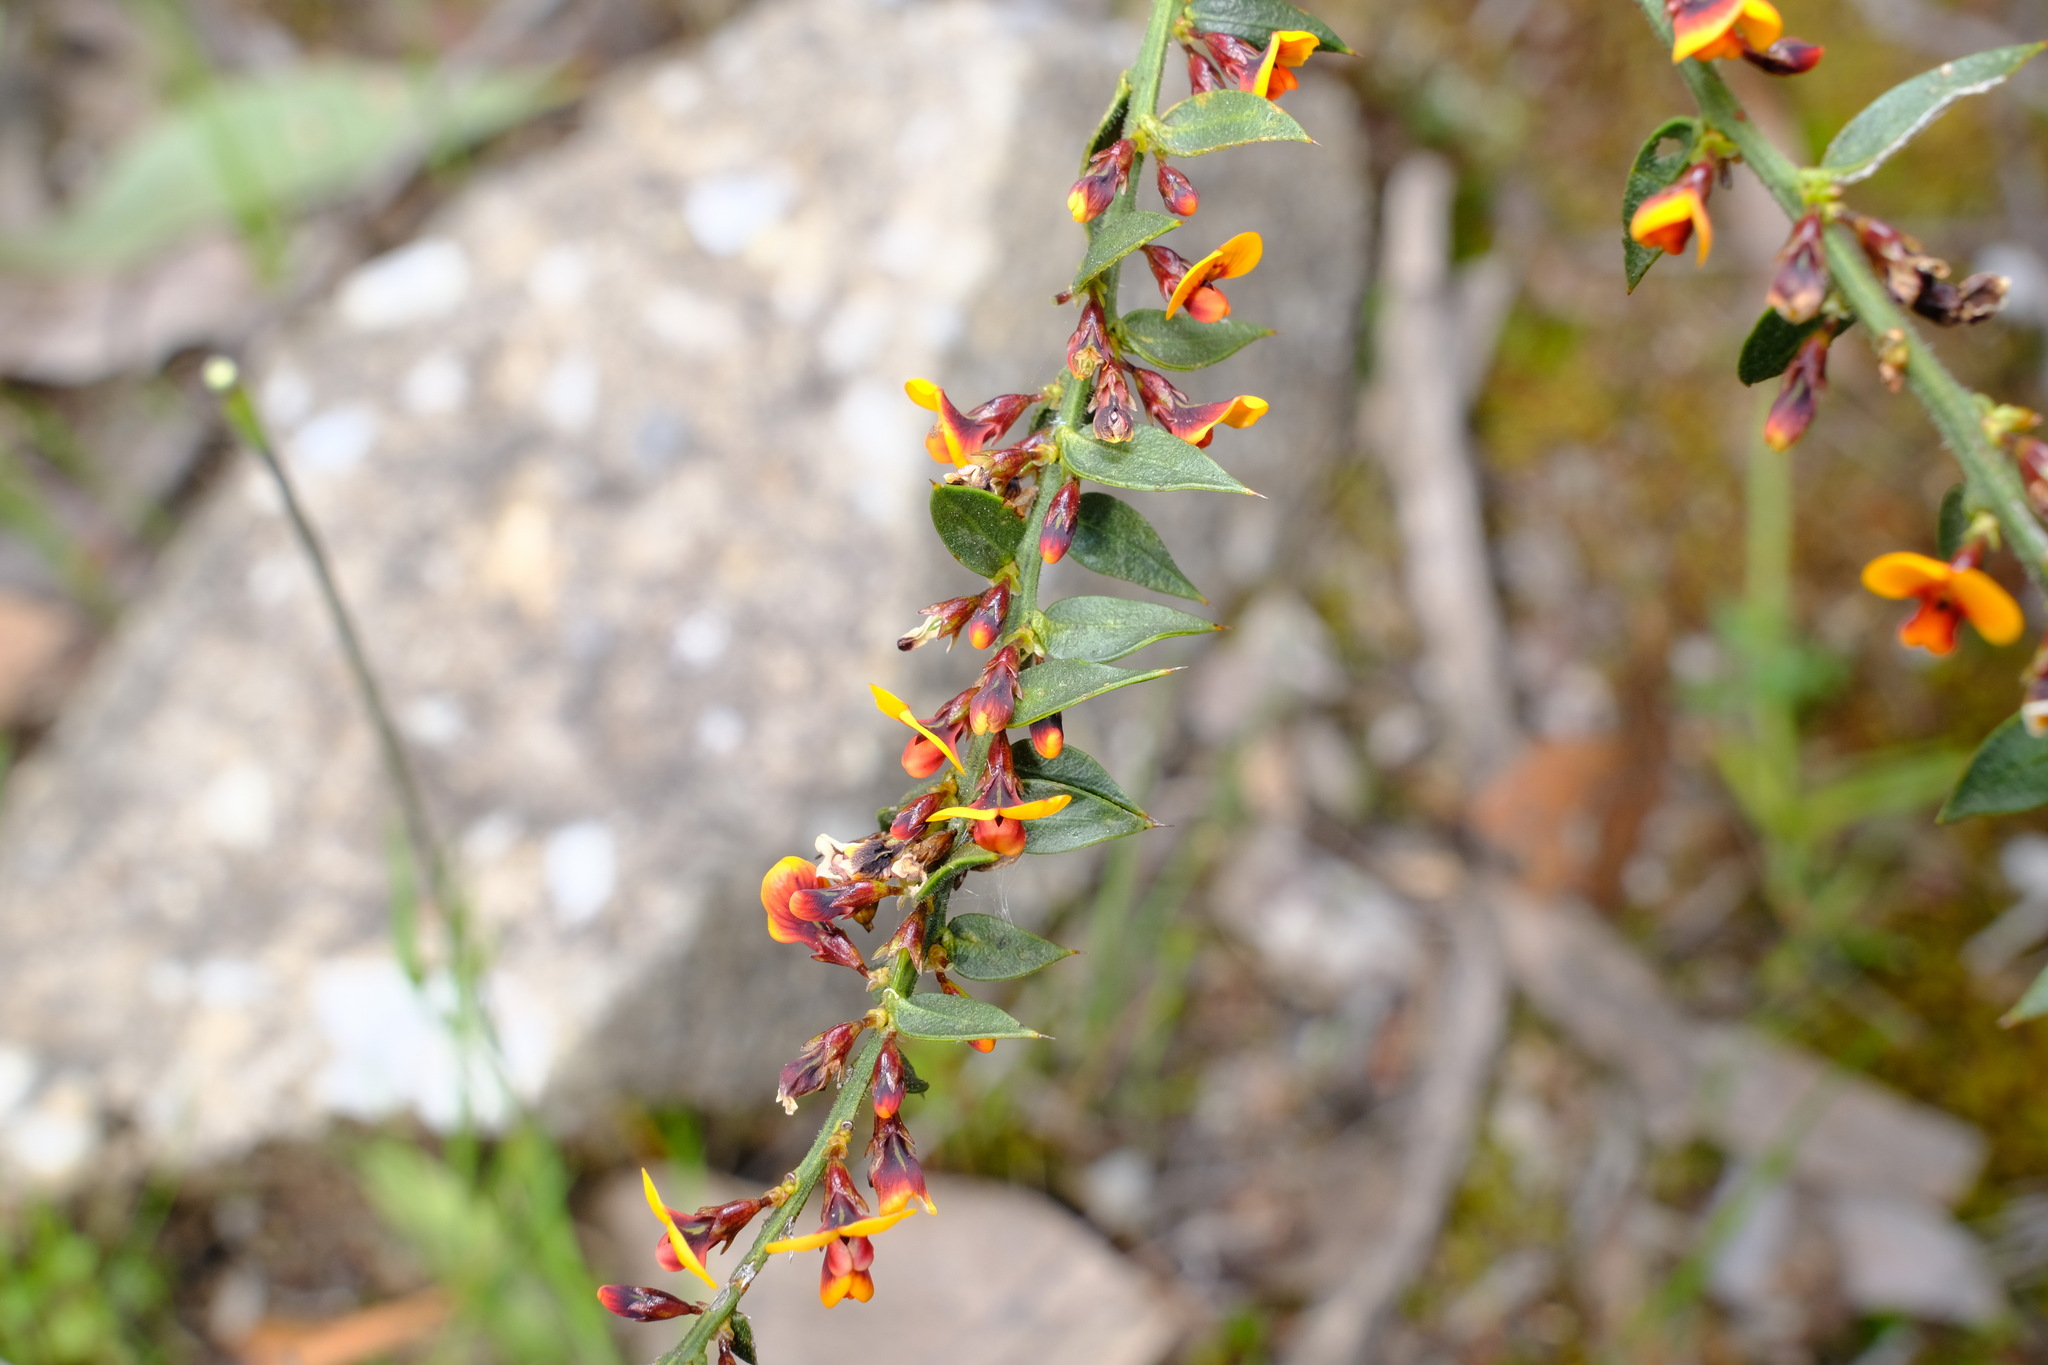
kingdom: Plantae
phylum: Tracheophyta
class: Magnoliopsida
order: Fabales
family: Fabaceae
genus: Daviesia
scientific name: Daviesia ulicifolia
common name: Gorse bitter-pea
